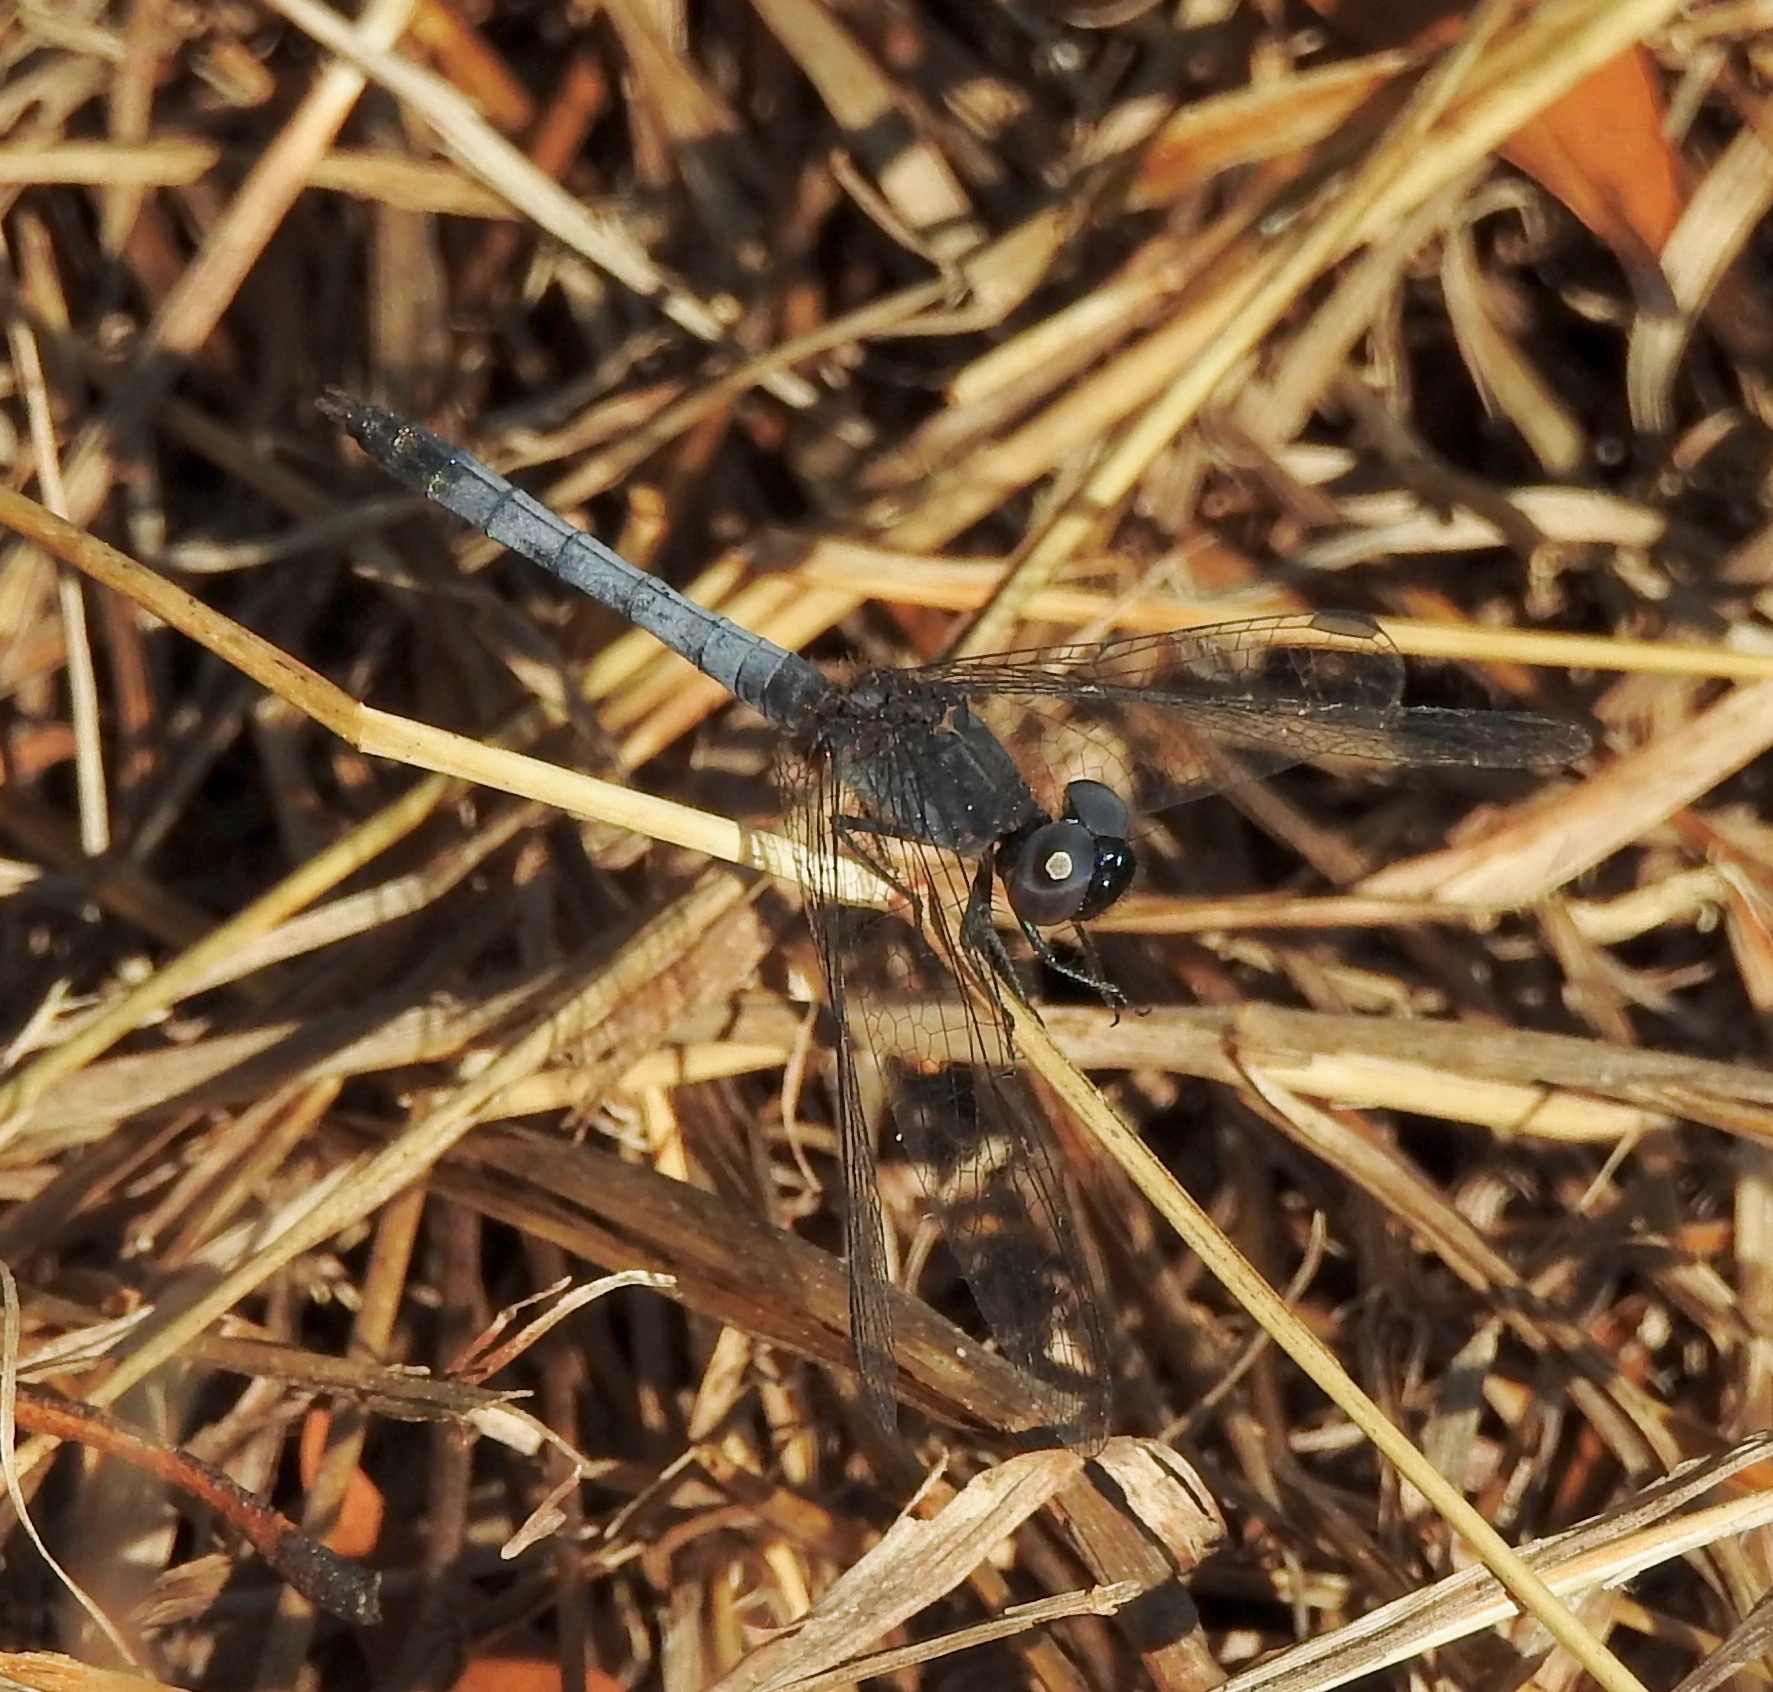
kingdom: Animalia
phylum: Arthropoda
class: Insecta
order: Odonata
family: Libellulidae
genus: Erythrodiplax
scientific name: Erythrodiplax minuscula
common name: Little blue dragonlet
